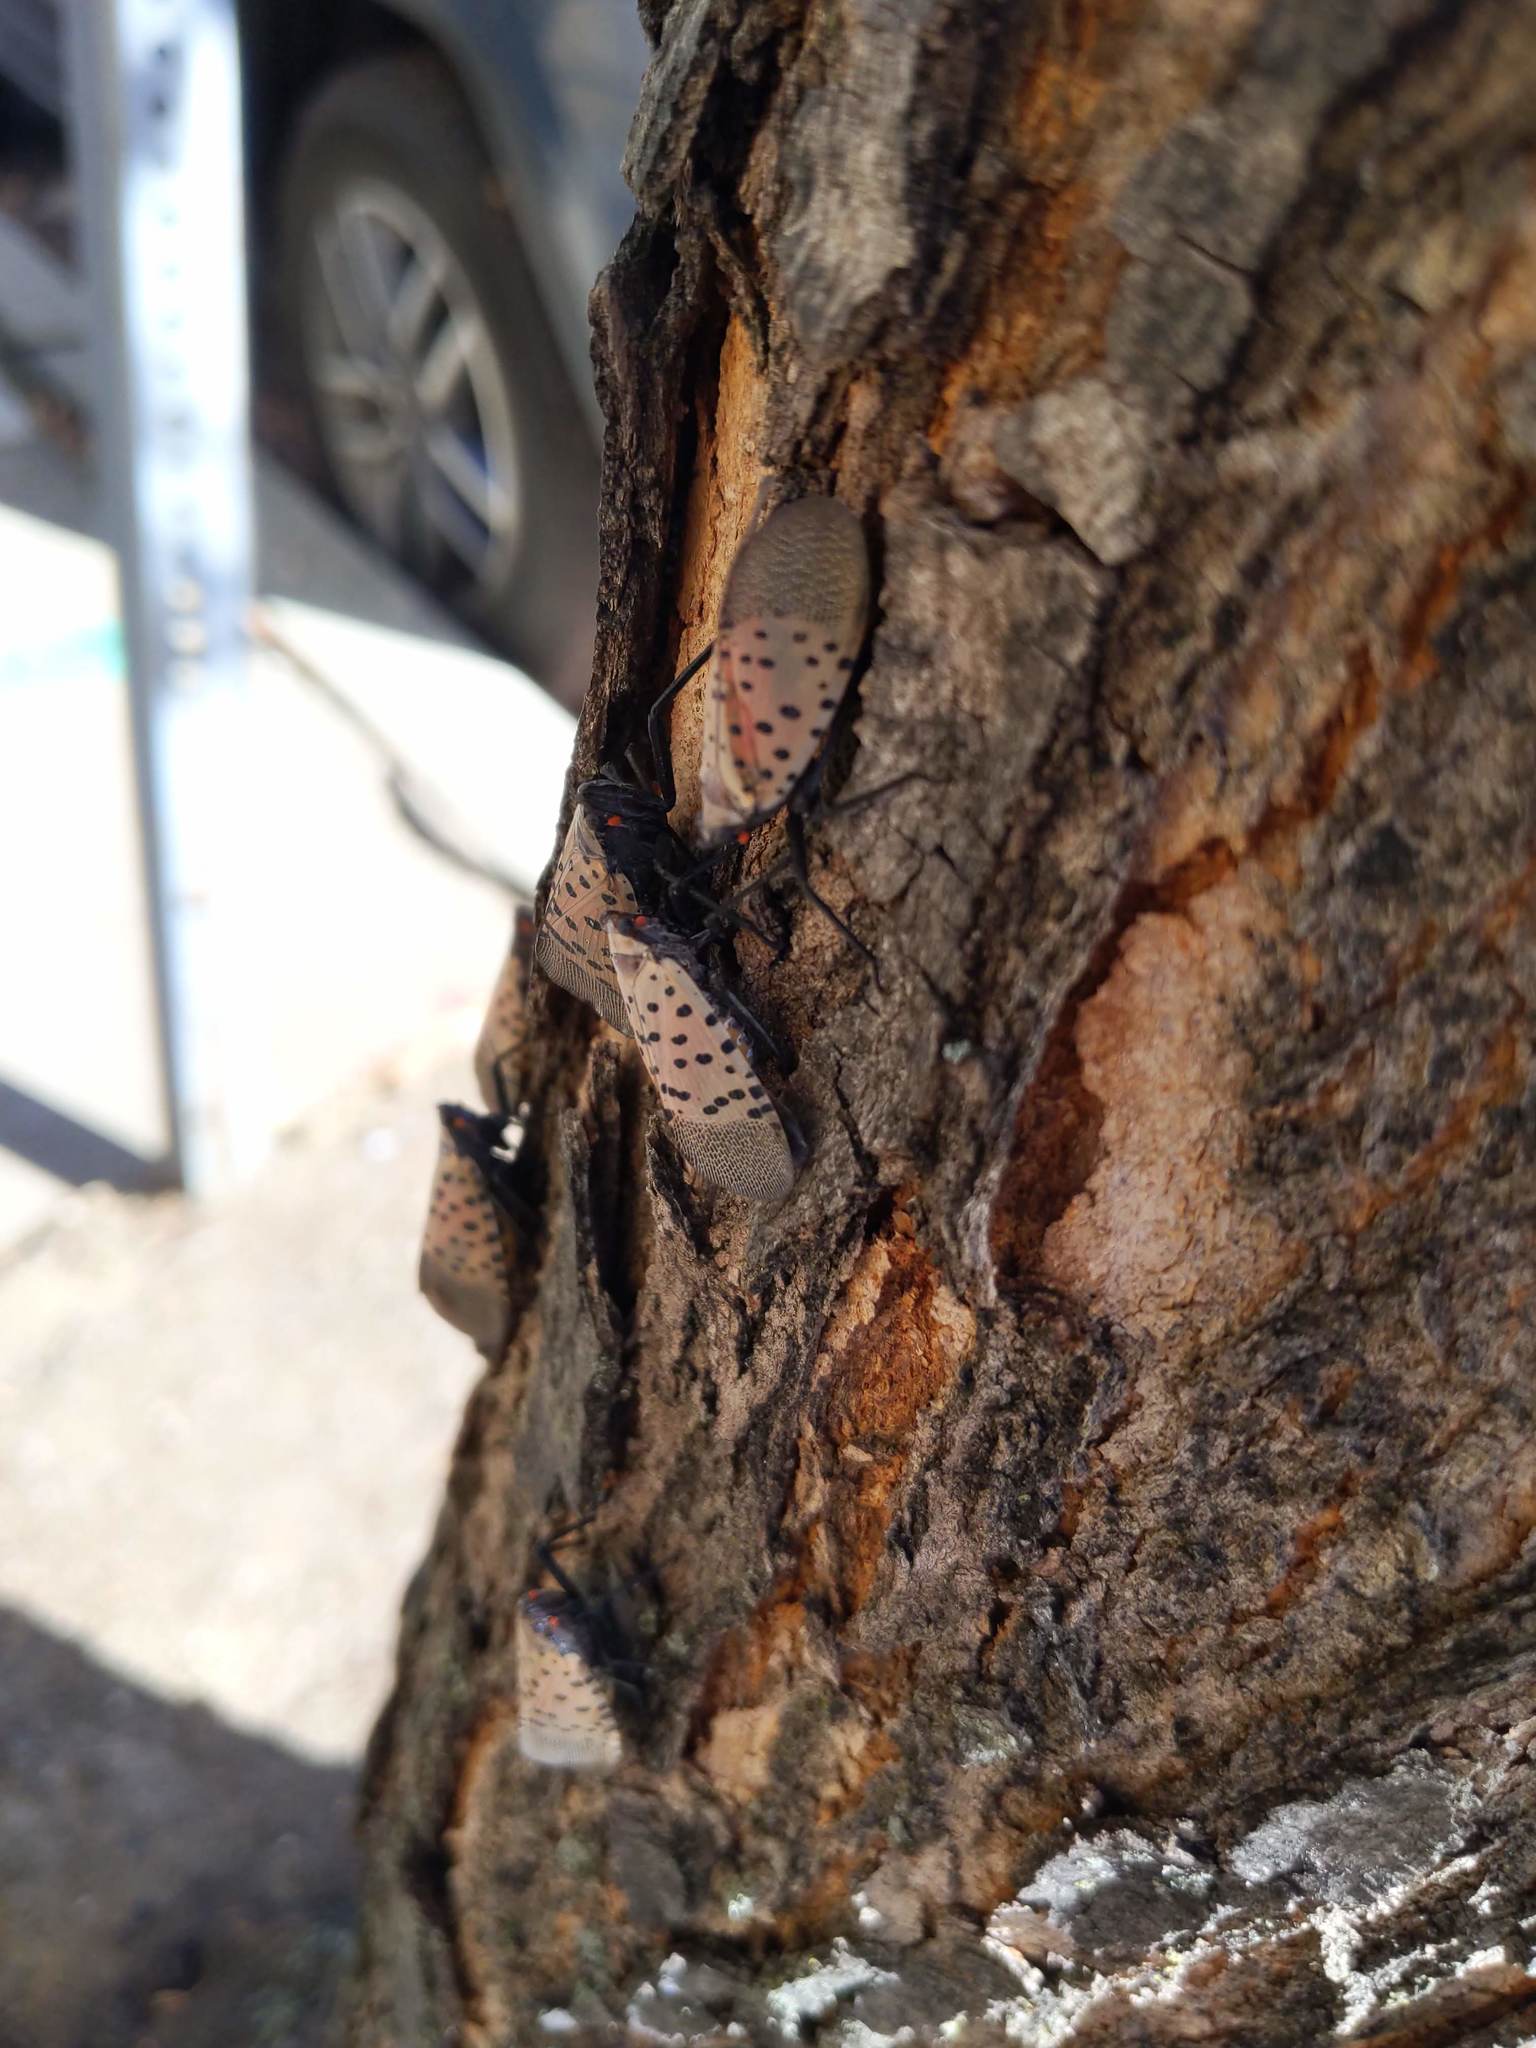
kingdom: Animalia
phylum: Arthropoda
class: Insecta
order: Hemiptera
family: Fulgoridae
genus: Lycorma
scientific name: Lycorma delicatula
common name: Spotted lanternfly
